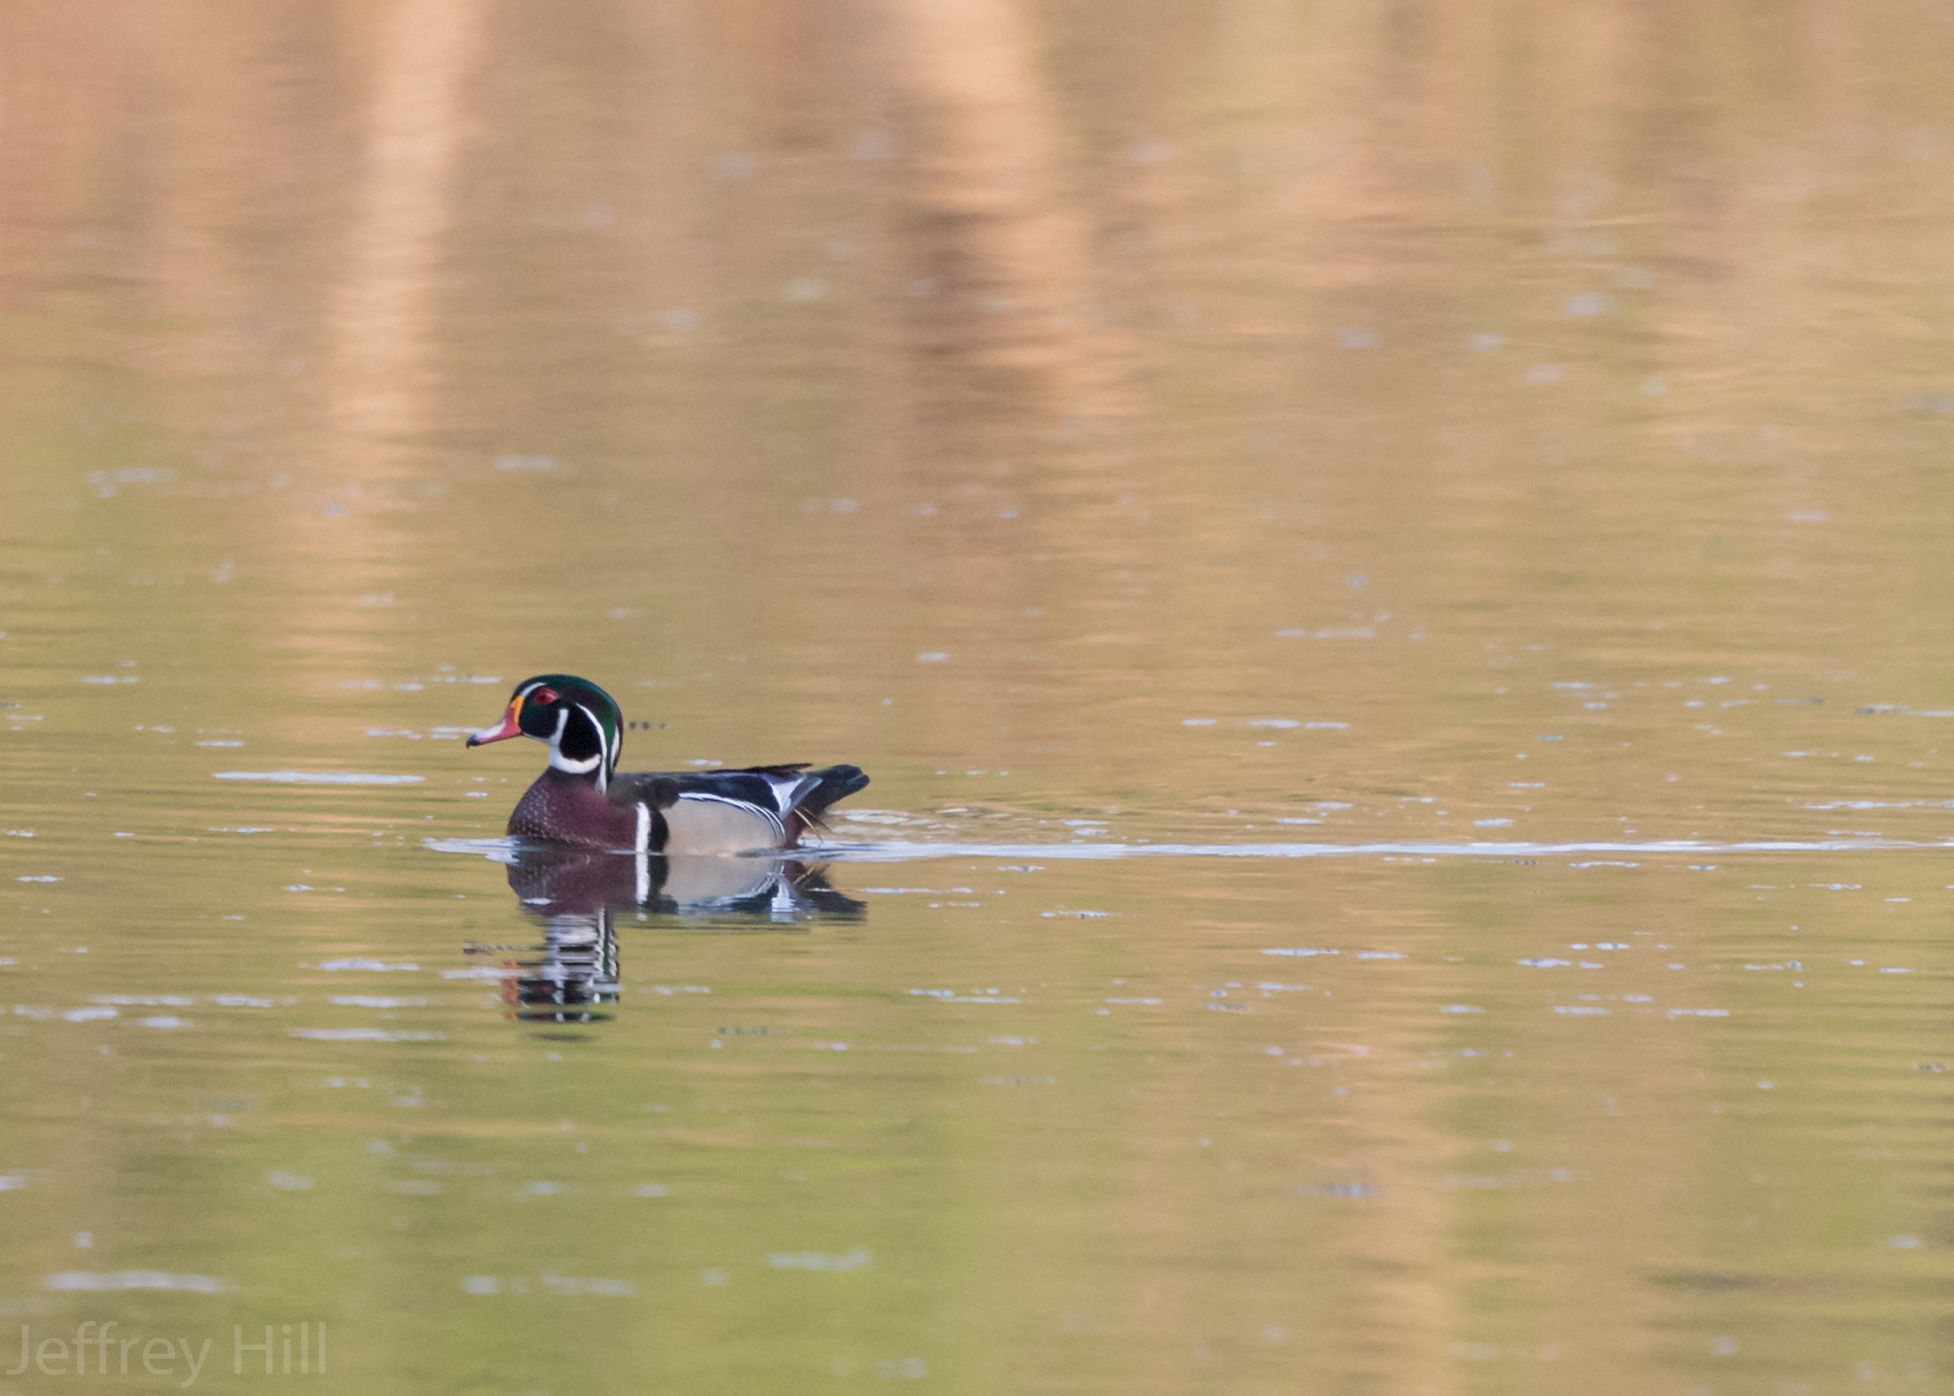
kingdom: Animalia
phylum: Chordata
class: Aves
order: Anseriformes
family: Anatidae
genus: Aix
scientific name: Aix sponsa
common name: Wood duck
